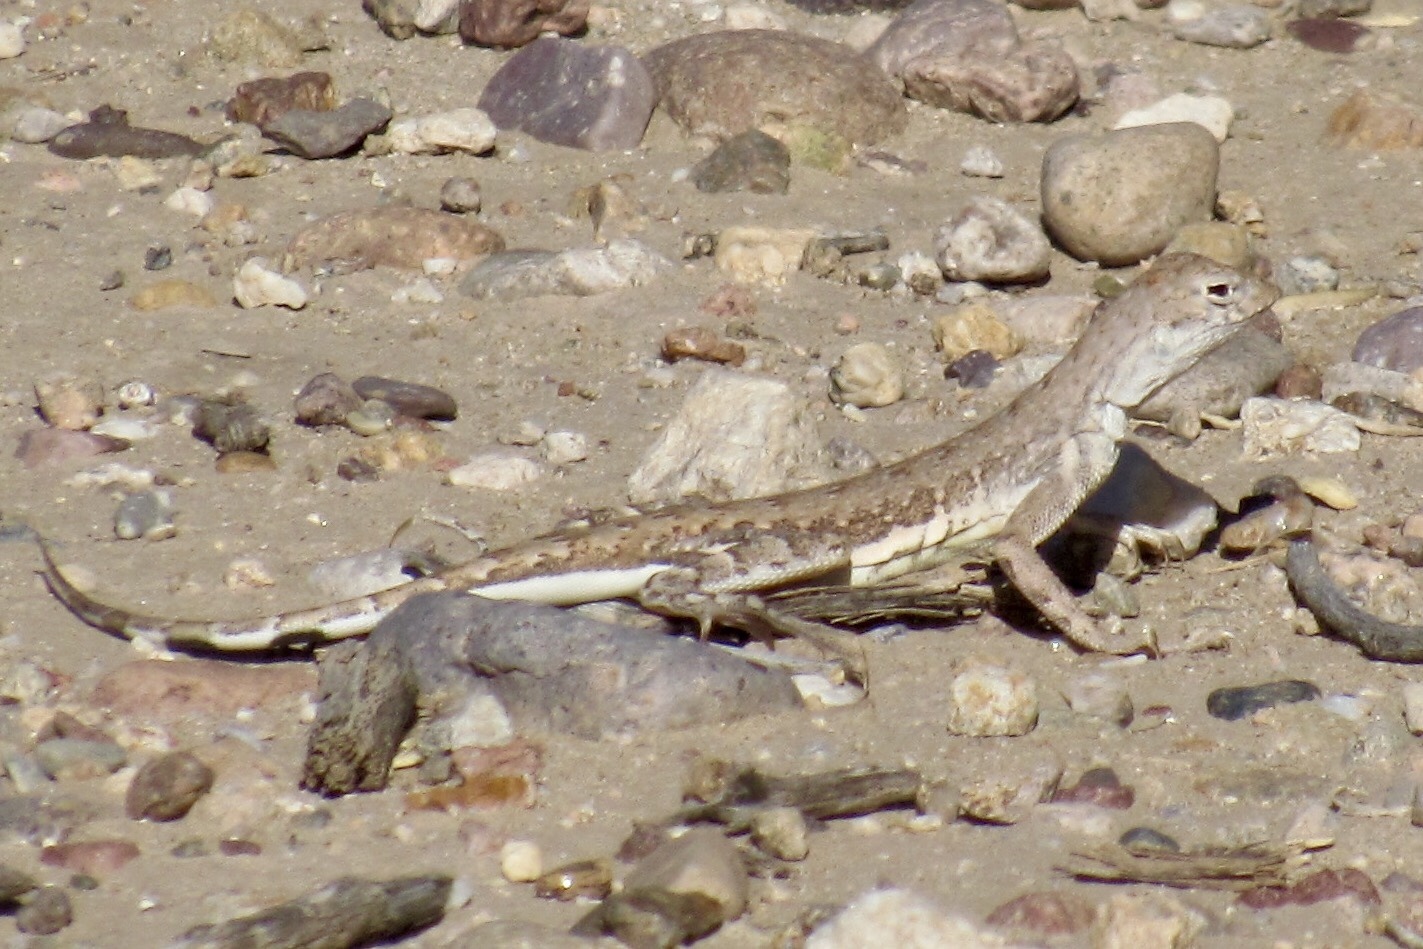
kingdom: Animalia
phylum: Chordata
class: Squamata
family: Phrynosomatidae
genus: Callisaurus
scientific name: Callisaurus draconoides
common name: Zebra-tailed lizard
